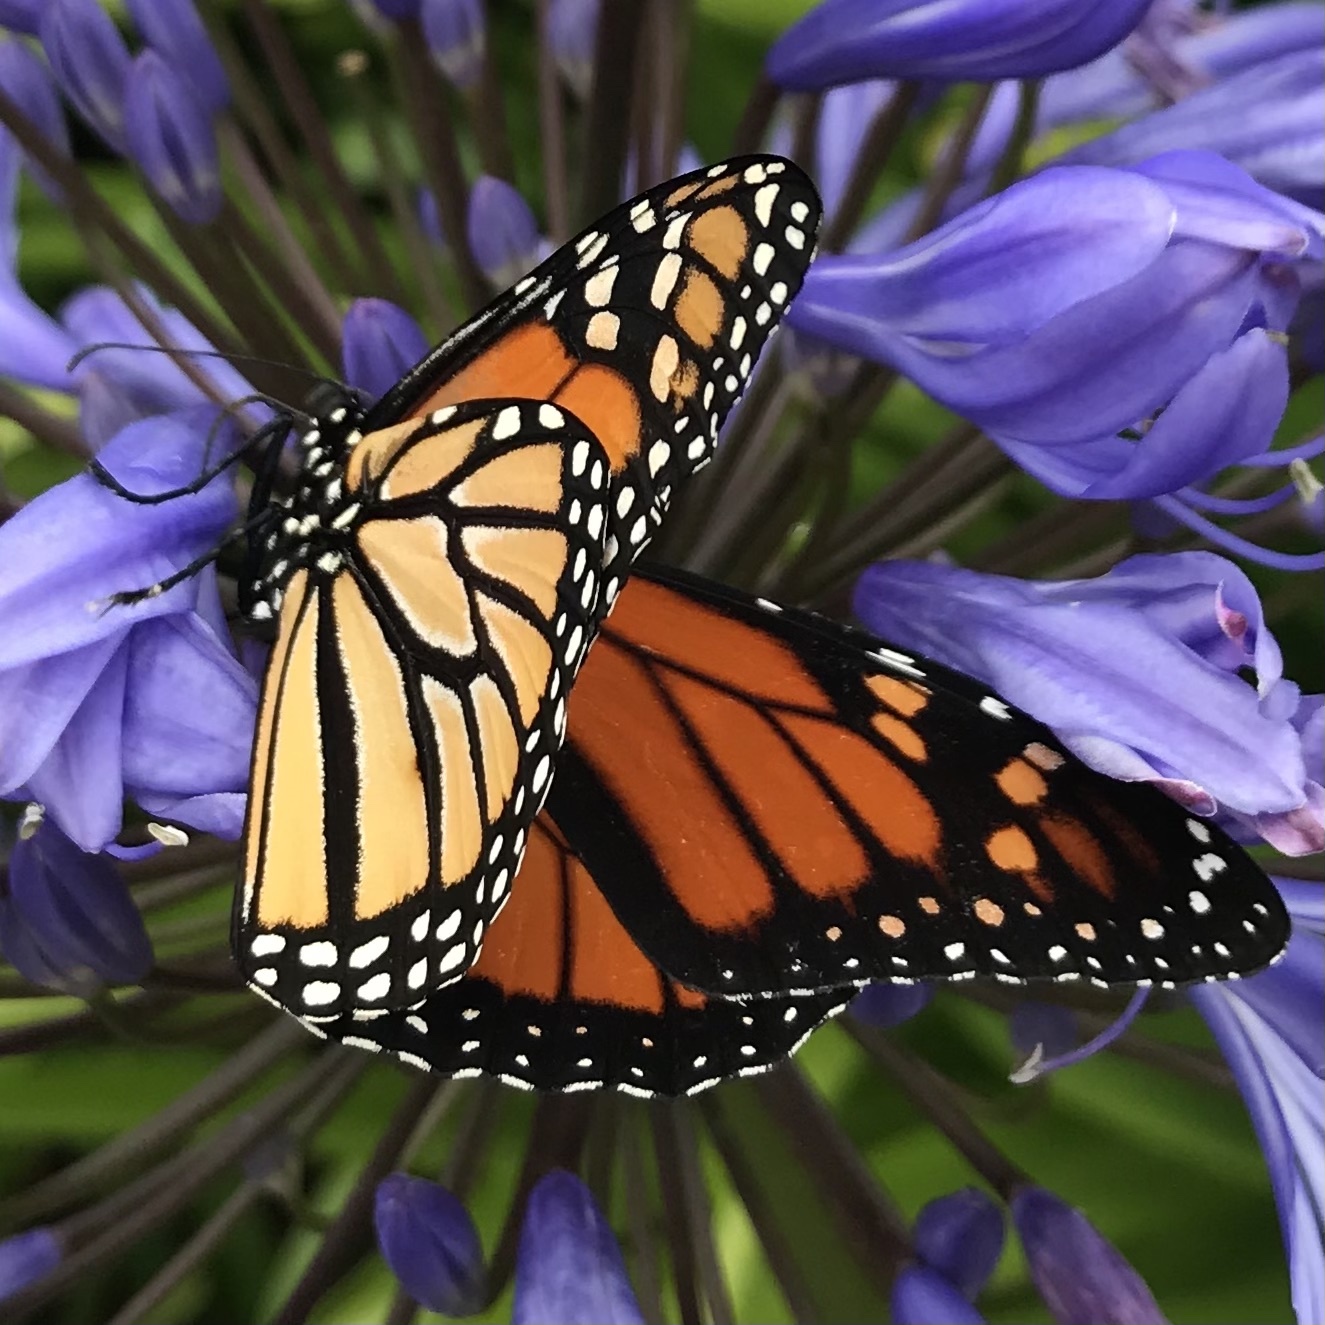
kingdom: Animalia
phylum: Arthropoda
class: Insecta
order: Lepidoptera
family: Nymphalidae
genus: Danaus
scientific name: Danaus plexippus
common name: Monarch
